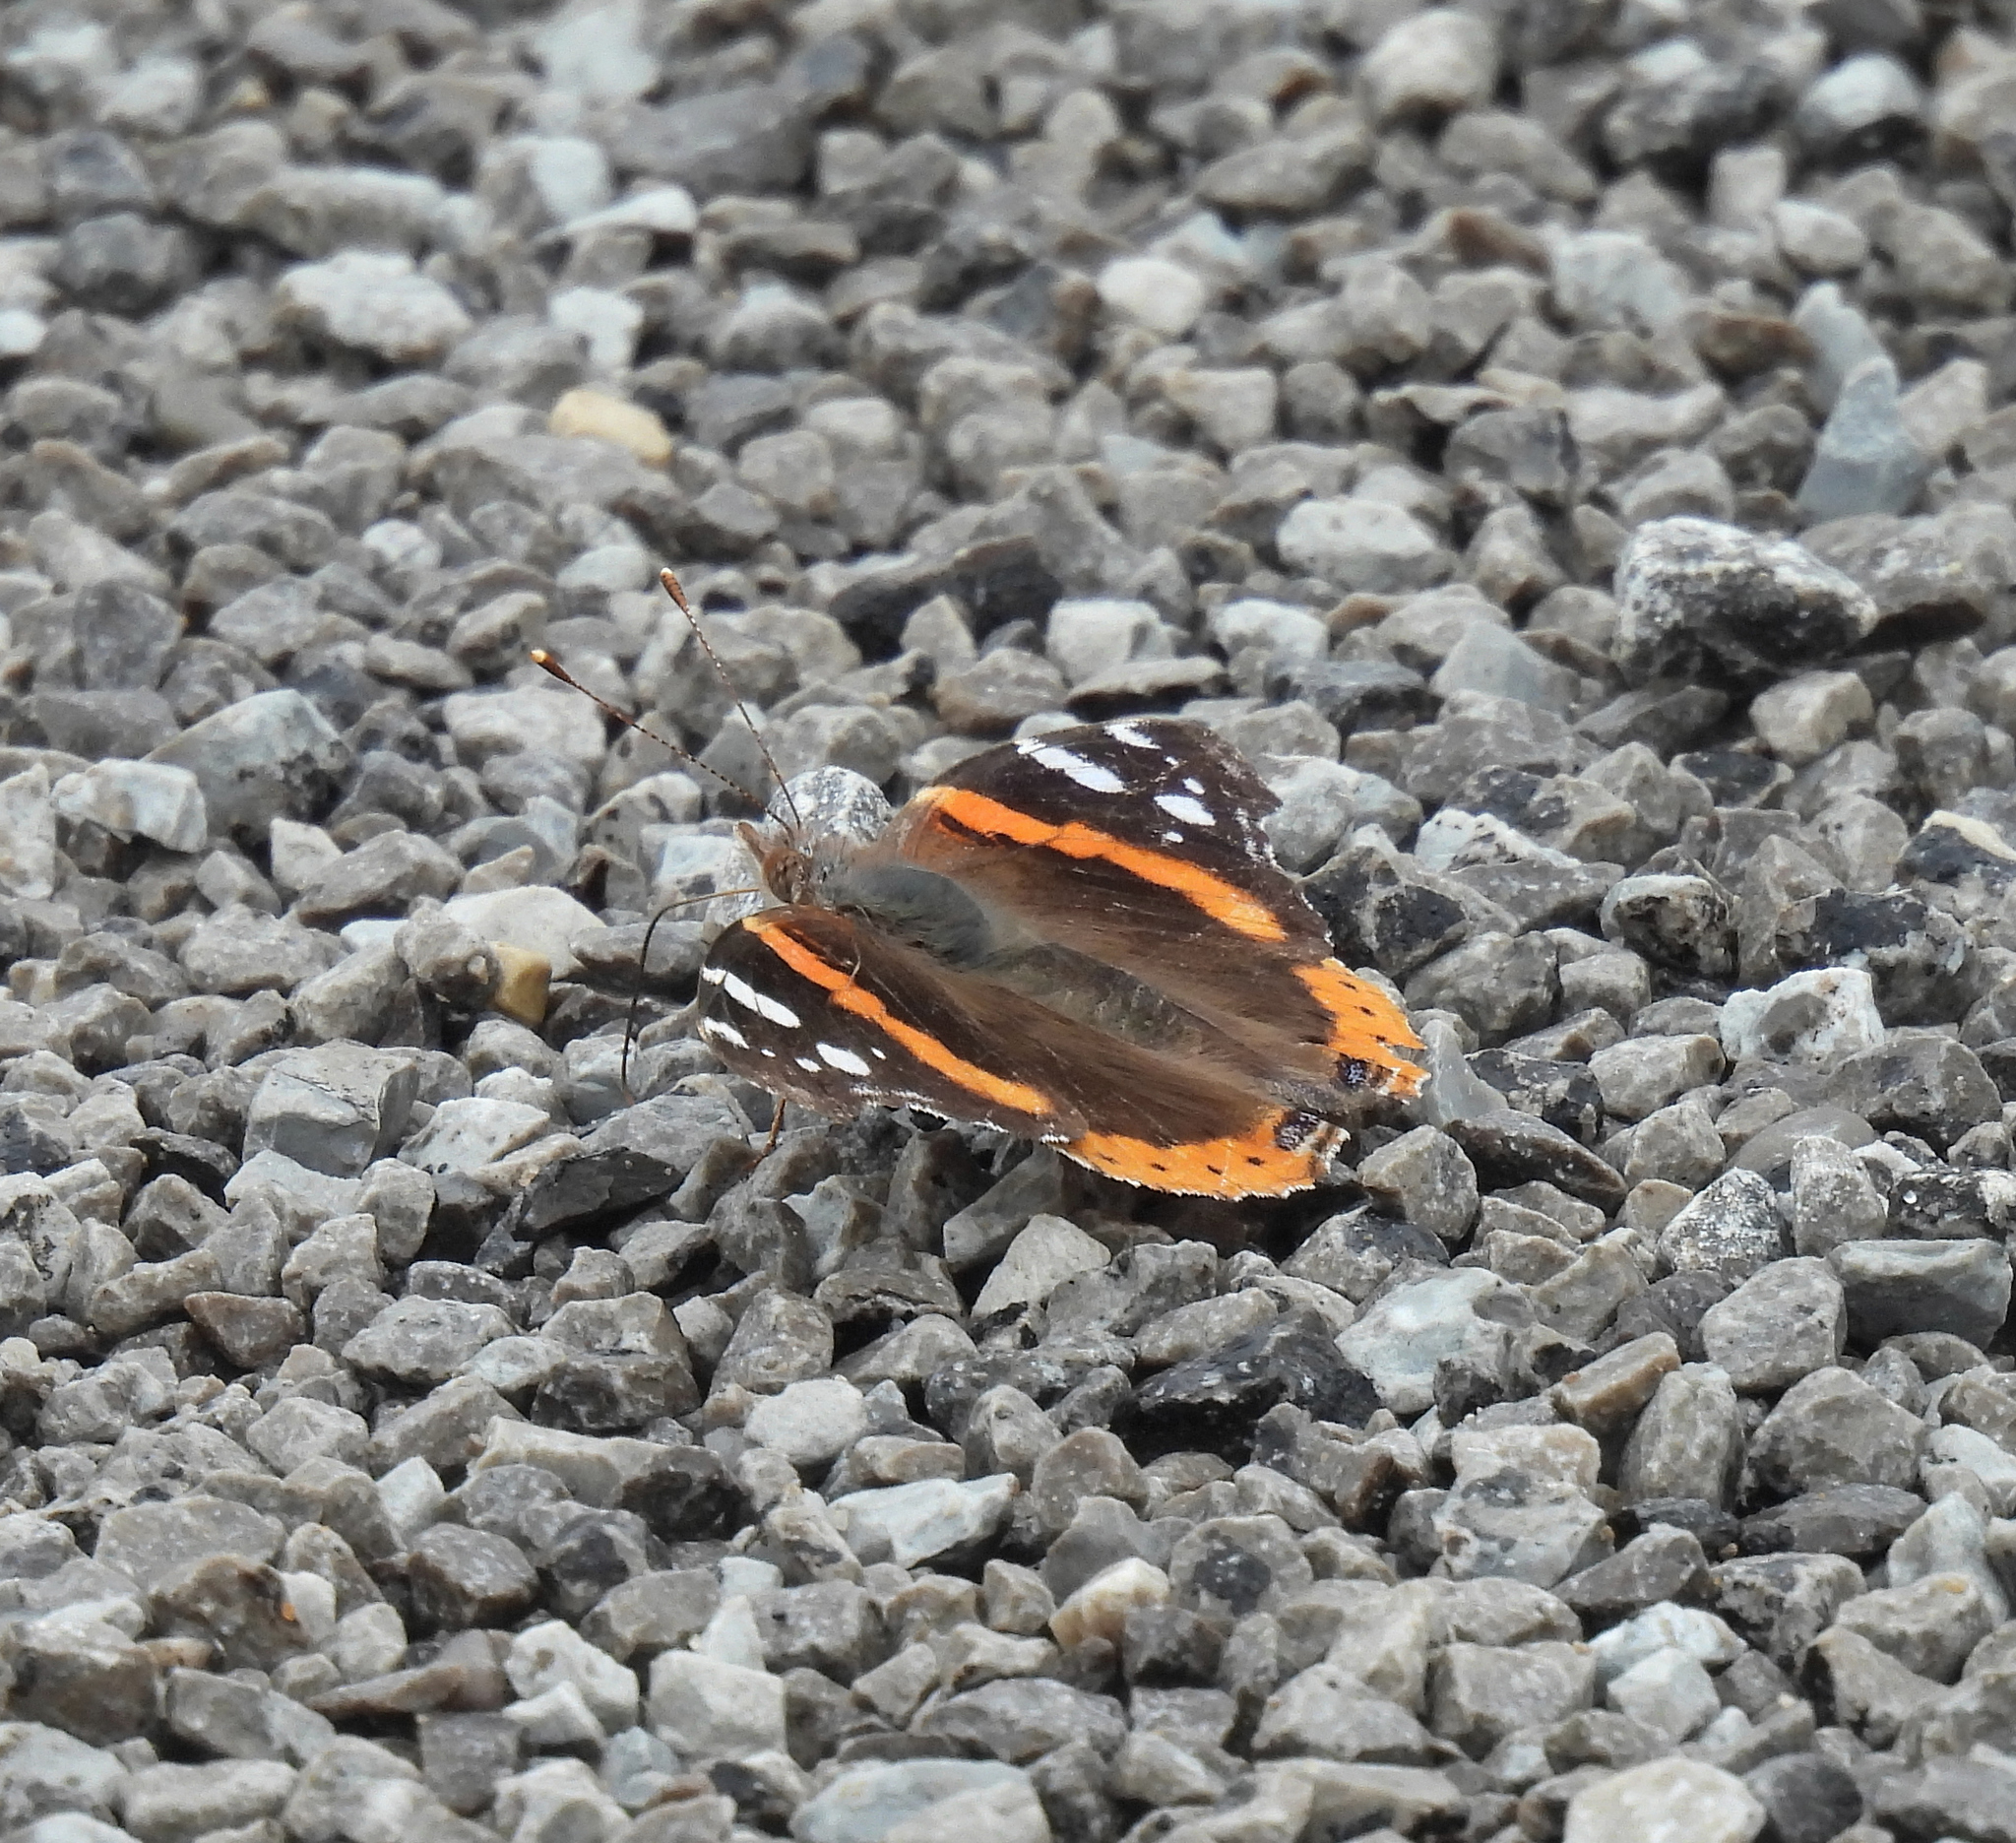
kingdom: Animalia
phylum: Arthropoda
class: Insecta
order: Lepidoptera
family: Nymphalidae
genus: Vanessa
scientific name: Vanessa atalanta
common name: Red admiral
